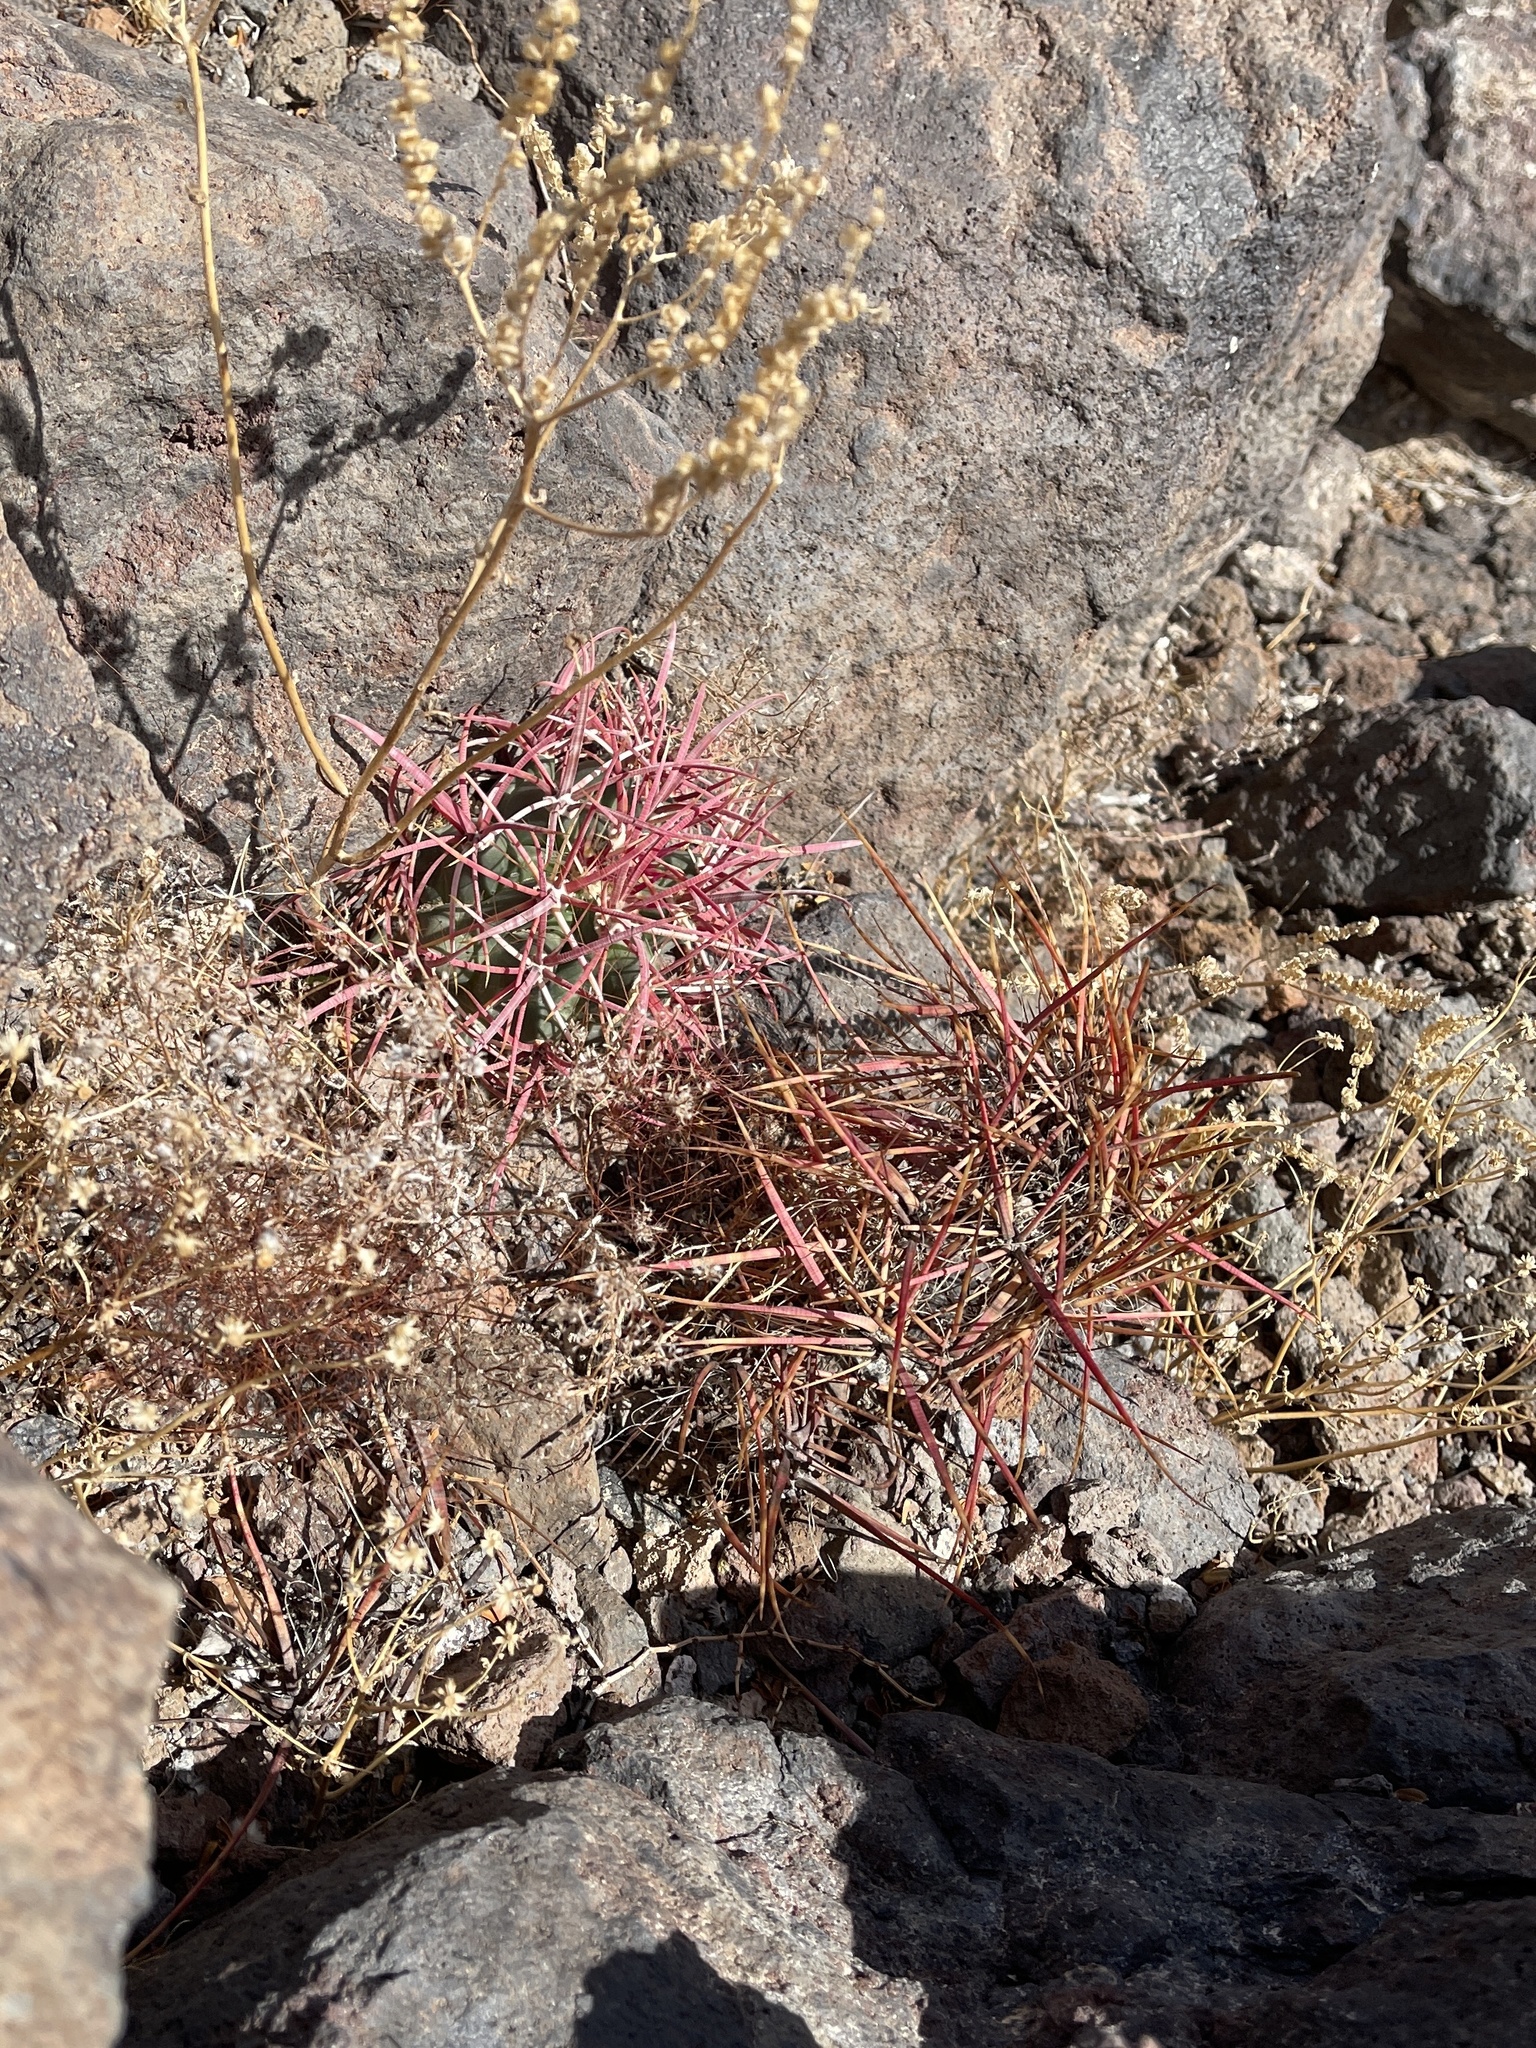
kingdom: Plantae
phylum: Tracheophyta
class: Magnoliopsida
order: Caryophyllales
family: Cactaceae
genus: Ferocactus
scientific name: Ferocactus cylindraceus
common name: California barrel cactus
